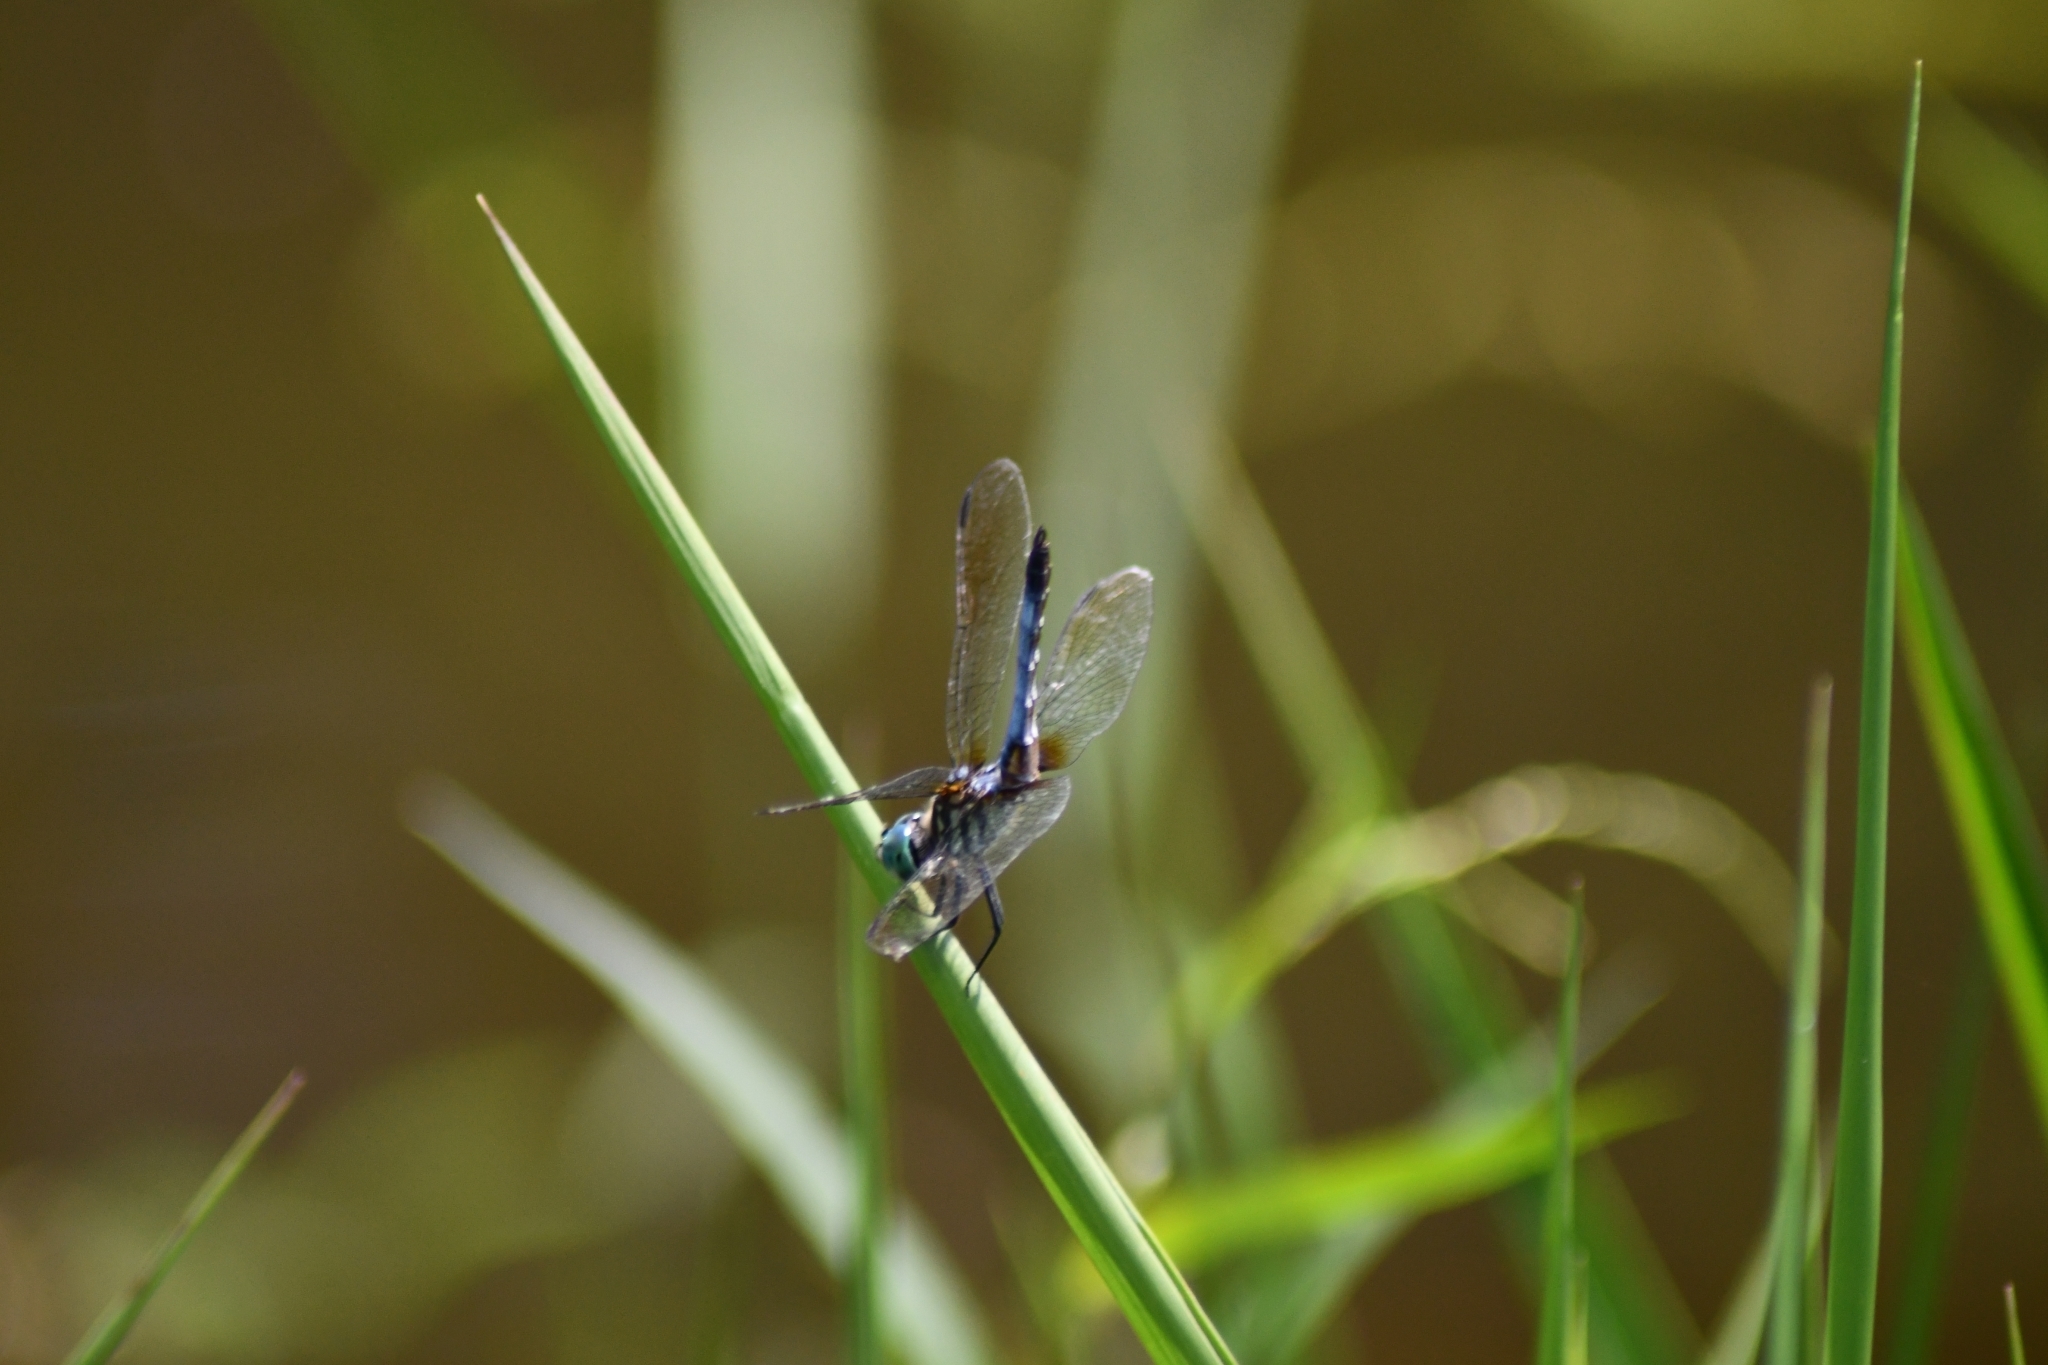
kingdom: Animalia
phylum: Arthropoda
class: Insecta
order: Odonata
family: Libellulidae
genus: Pachydiplax
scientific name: Pachydiplax longipennis
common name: Blue dasher
